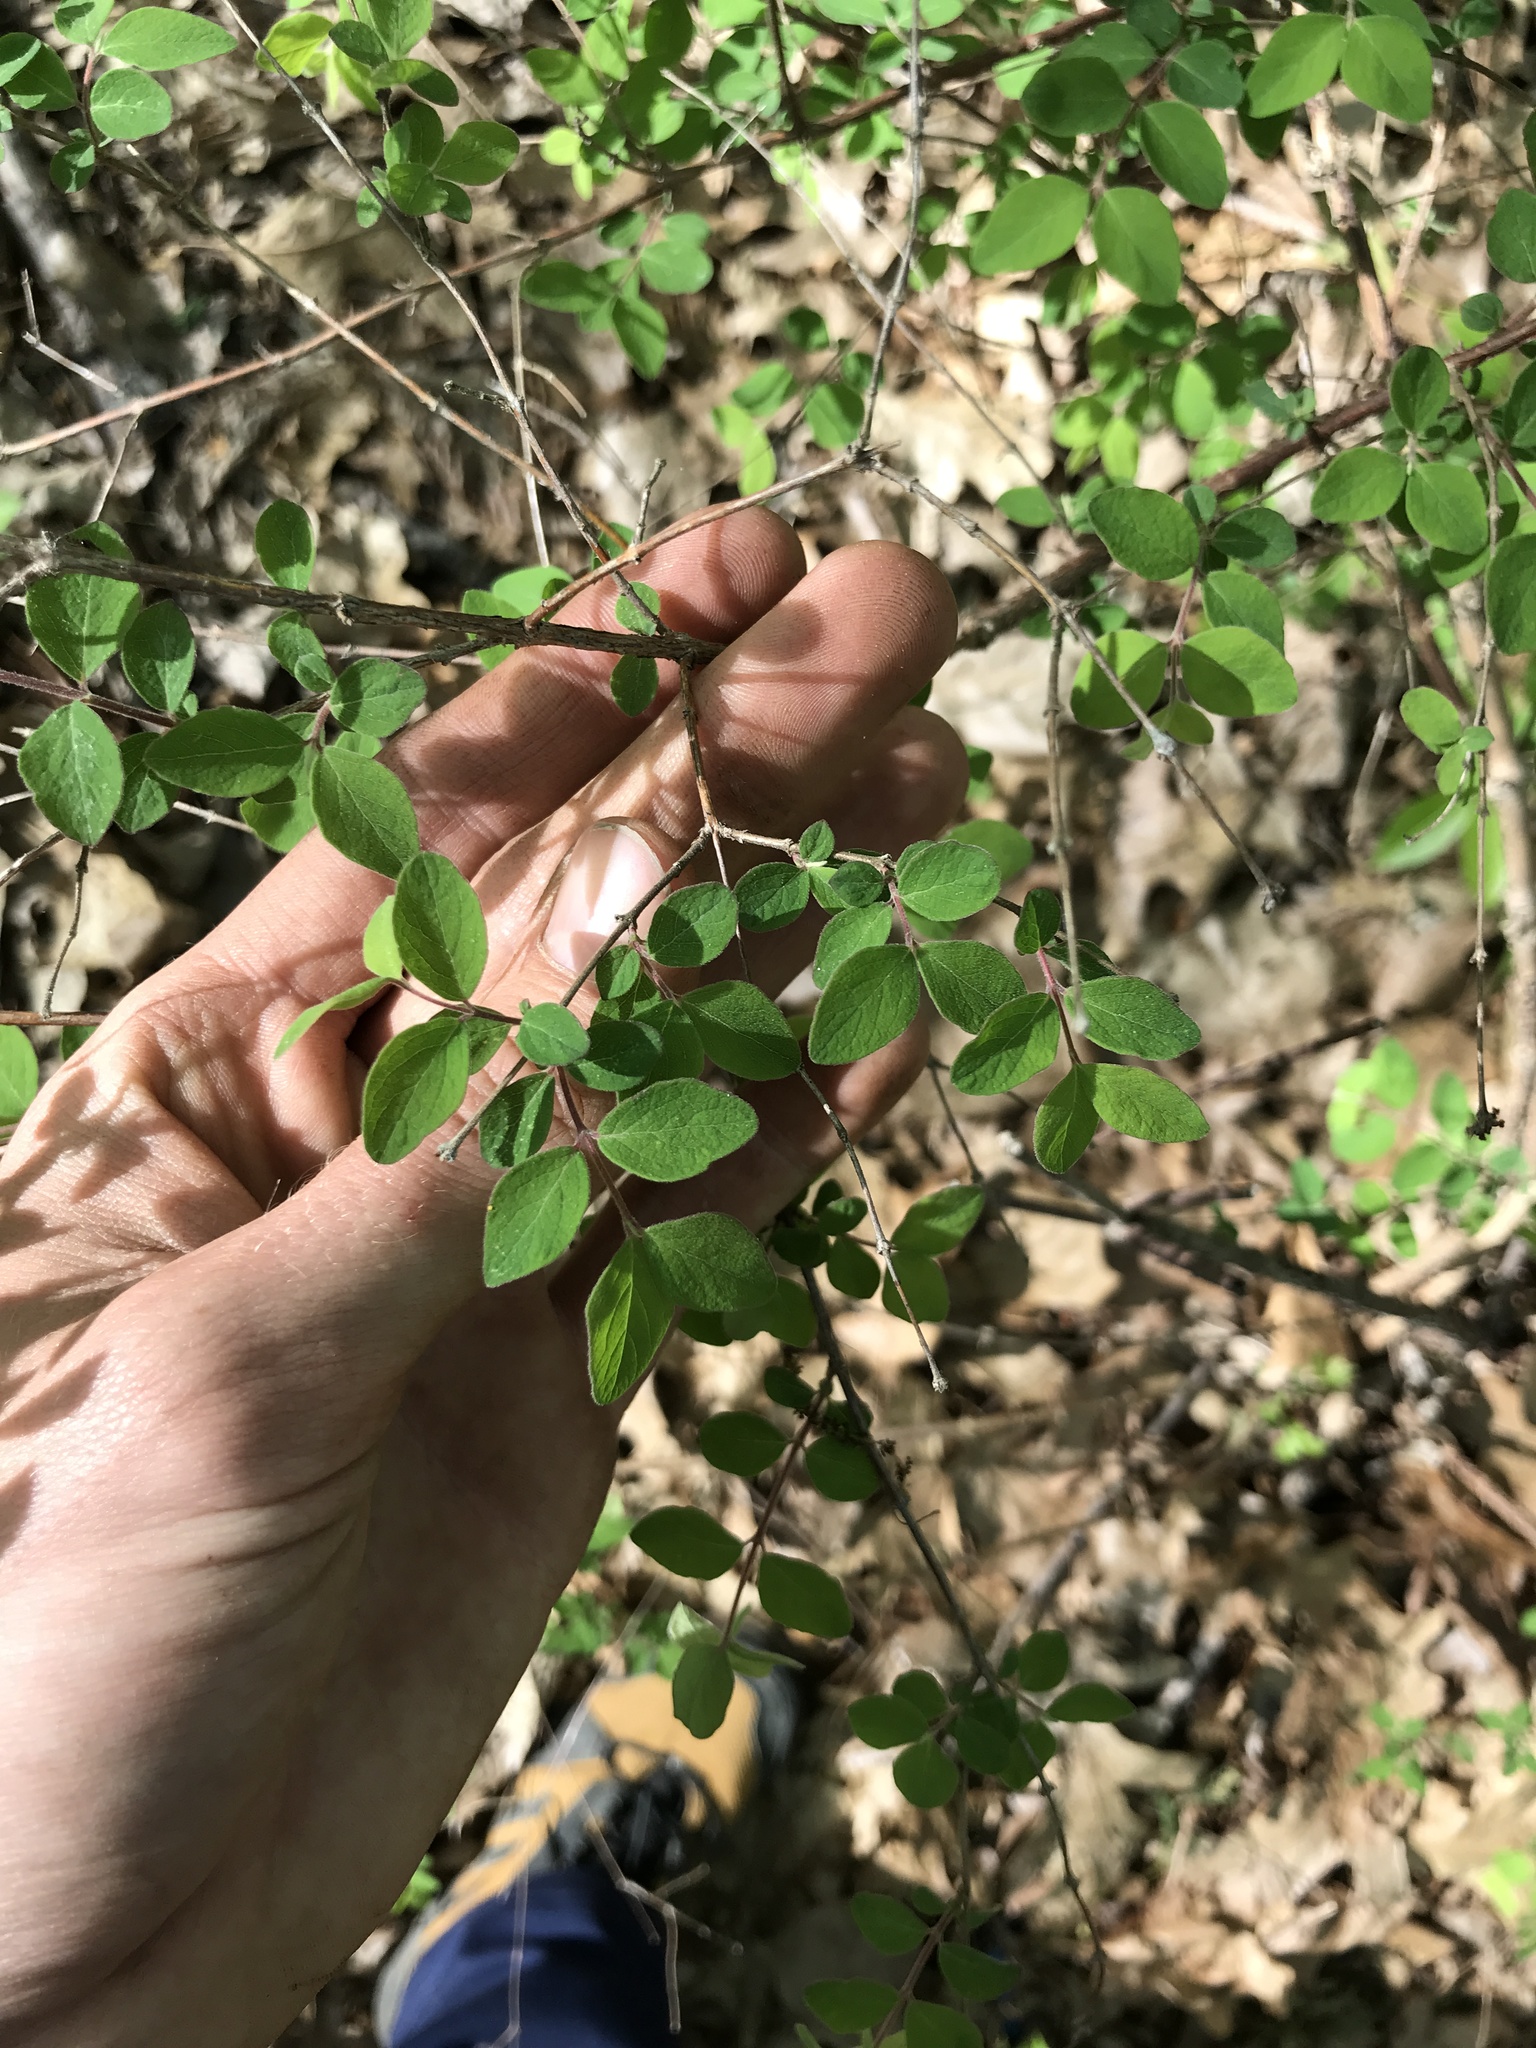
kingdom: Plantae
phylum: Tracheophyta
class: Magnoliopsida
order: Dipsacales
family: Caprifoliaceae
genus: Symphoricarpos
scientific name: Symphoricarpos orbiculatus
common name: Coralberry
